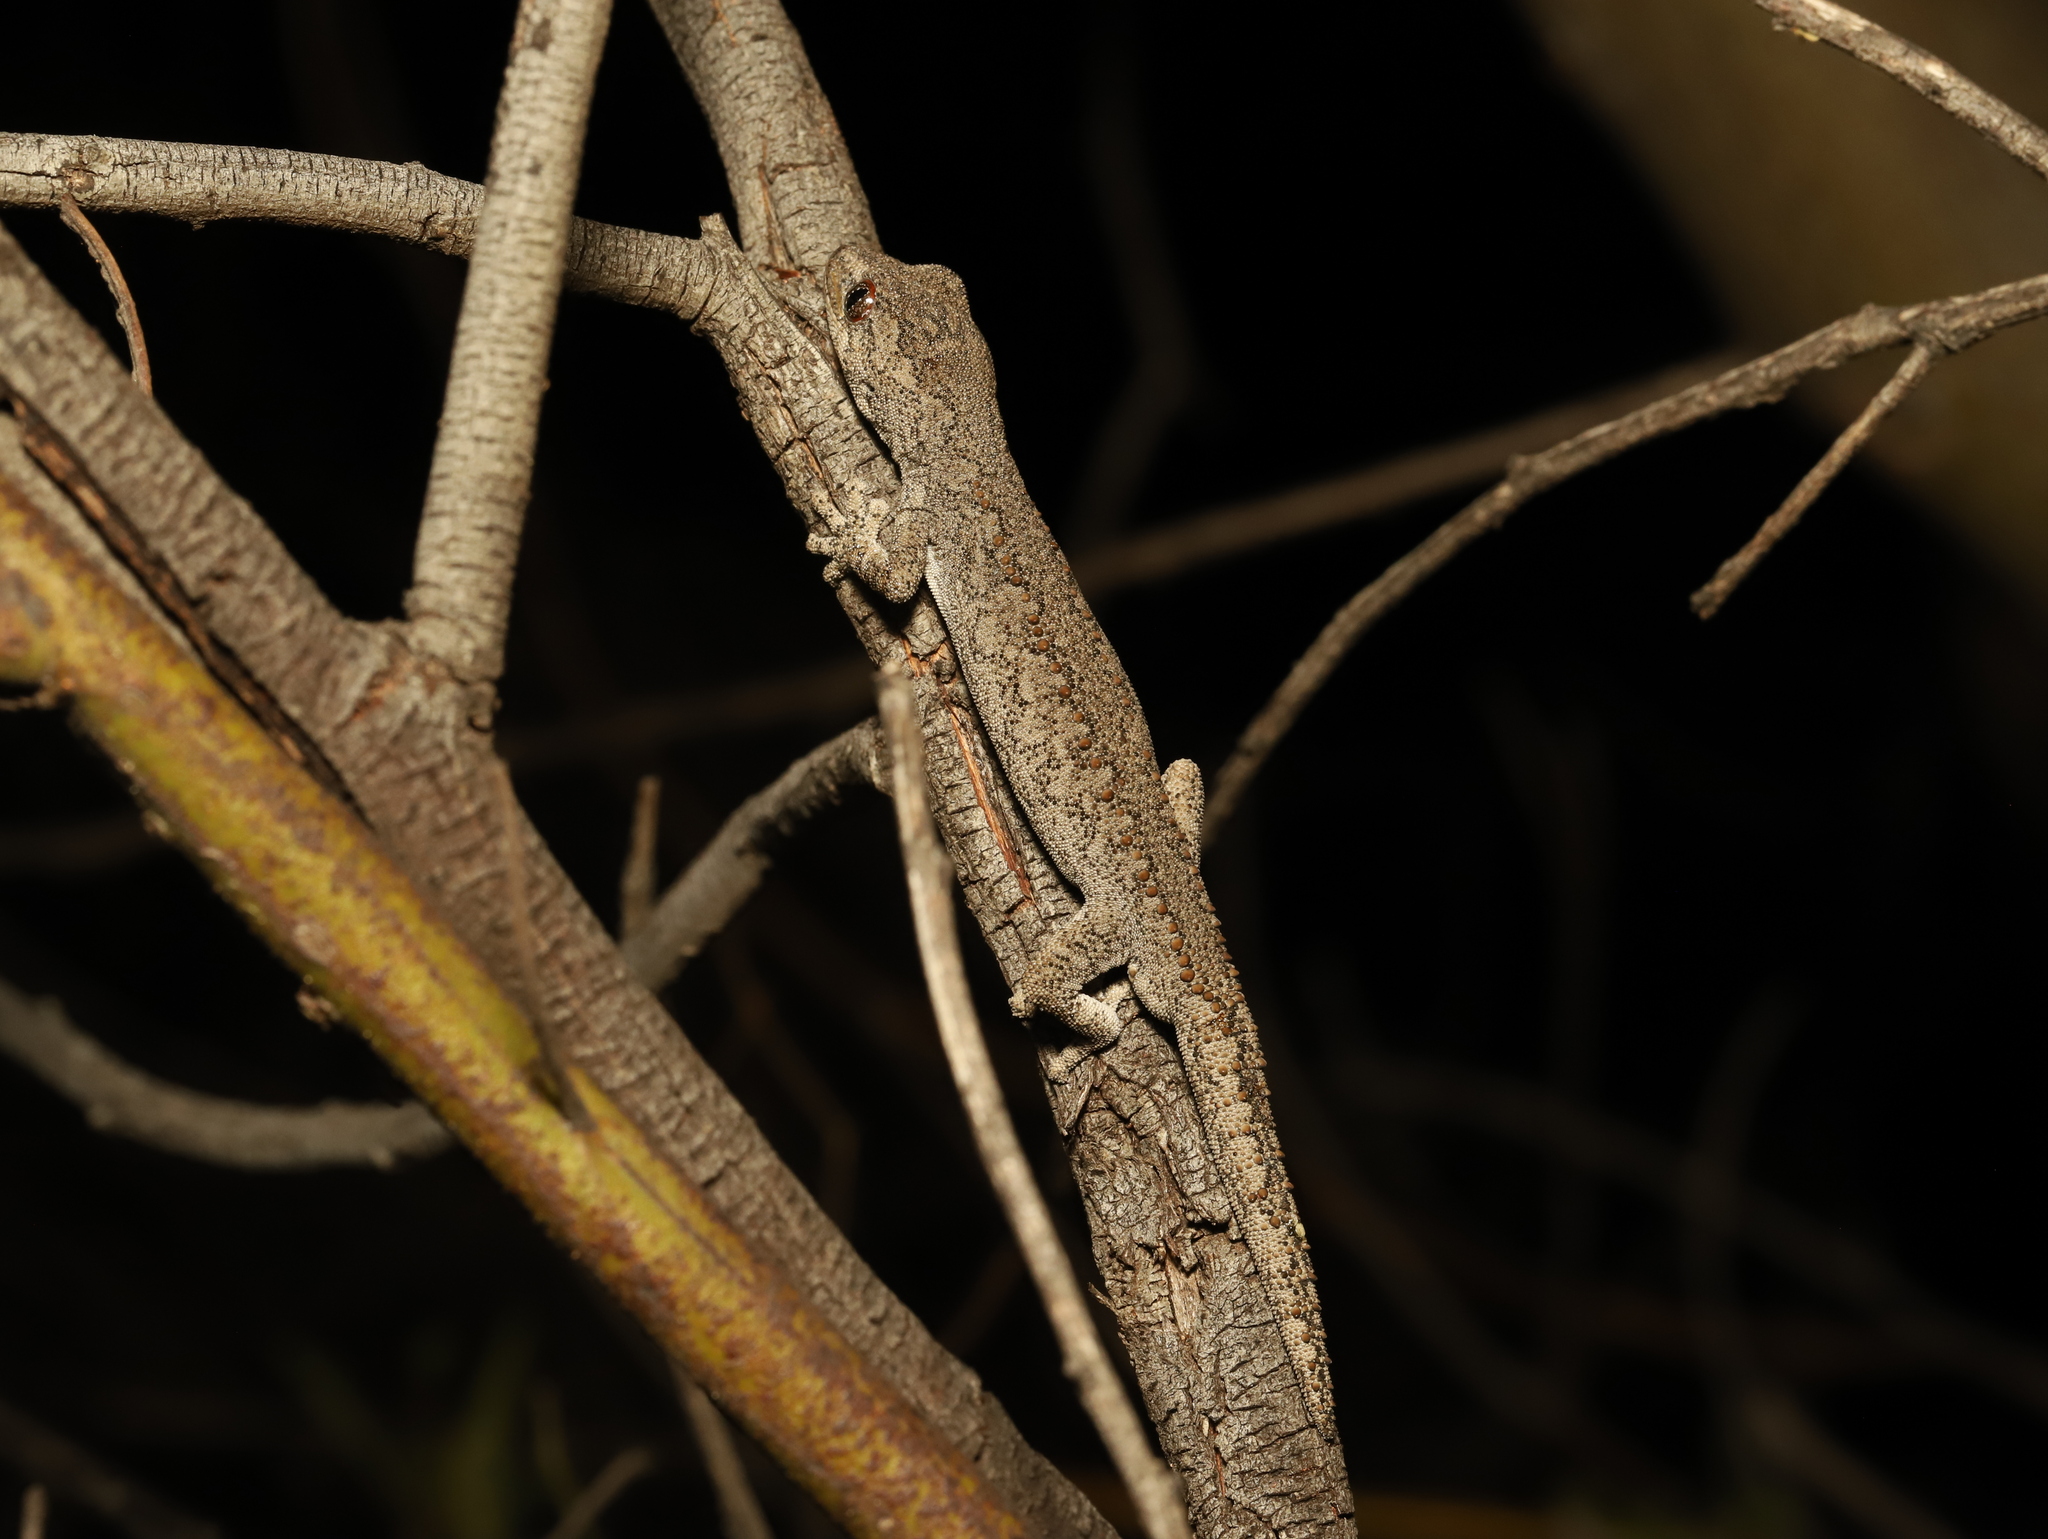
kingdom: Animalia
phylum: Chordata
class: Squamata
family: Diplodactylidae
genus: Strophurus
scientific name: Strophurus intermedius
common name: Eastern spiny-tailed gecko
